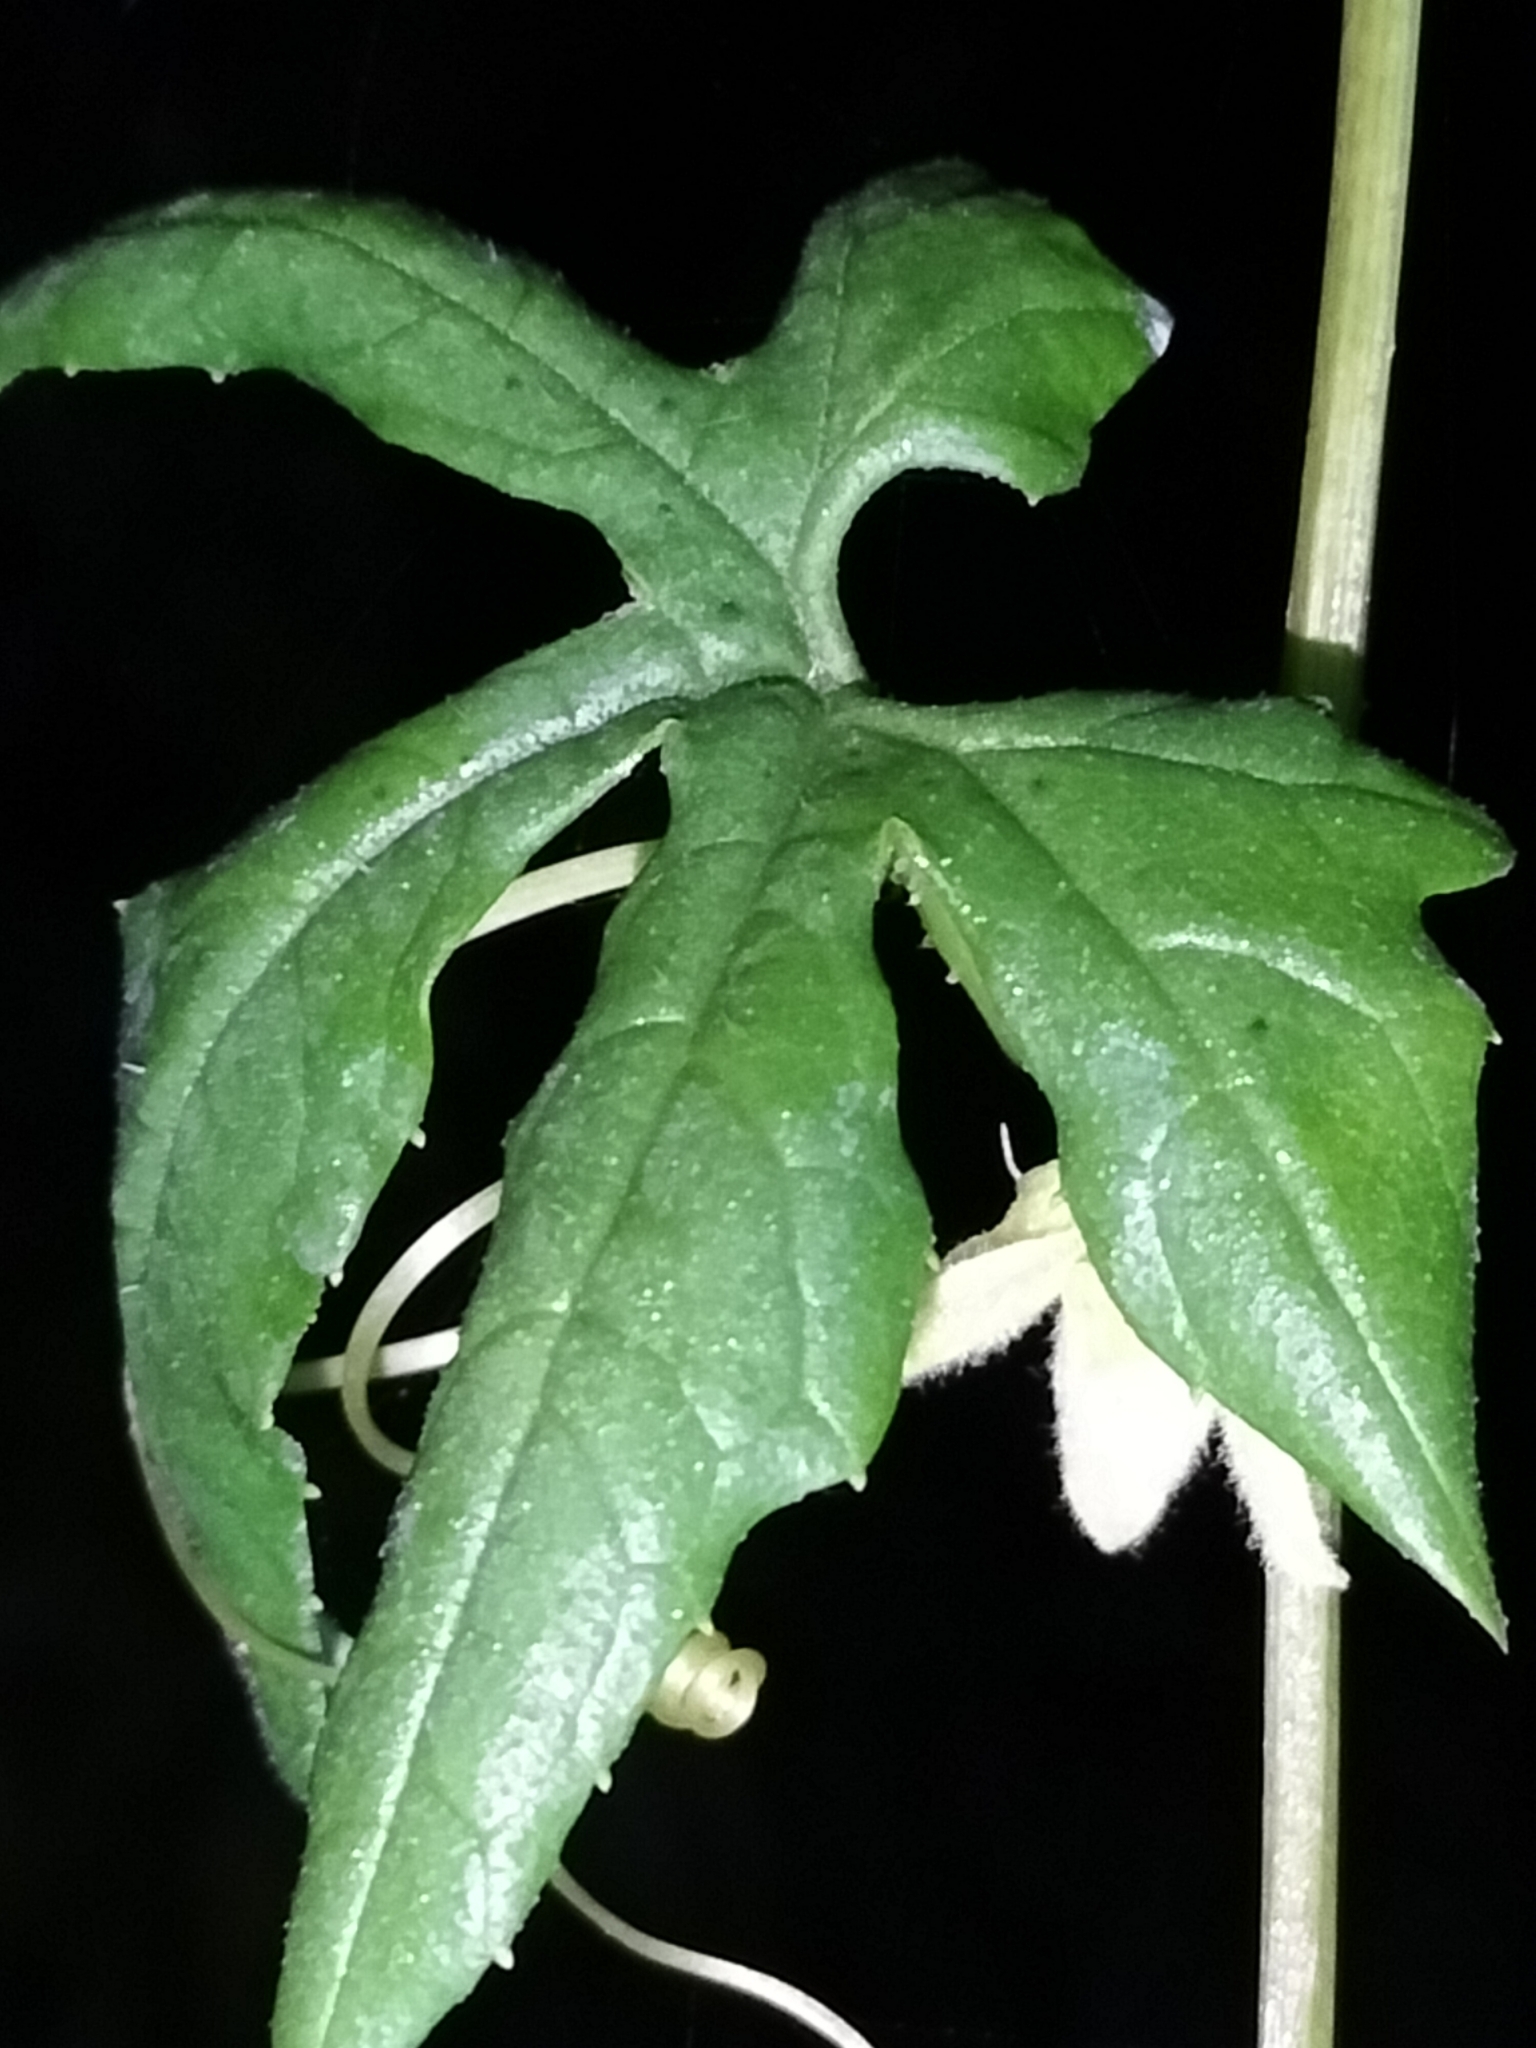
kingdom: Plantae
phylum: Tracheophyta
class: Magnoliopsida
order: Cucurbitales
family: Cucurbitaceae
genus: Diplocyclos
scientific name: Diplocyclos palmatus
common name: Striped-cucumber
